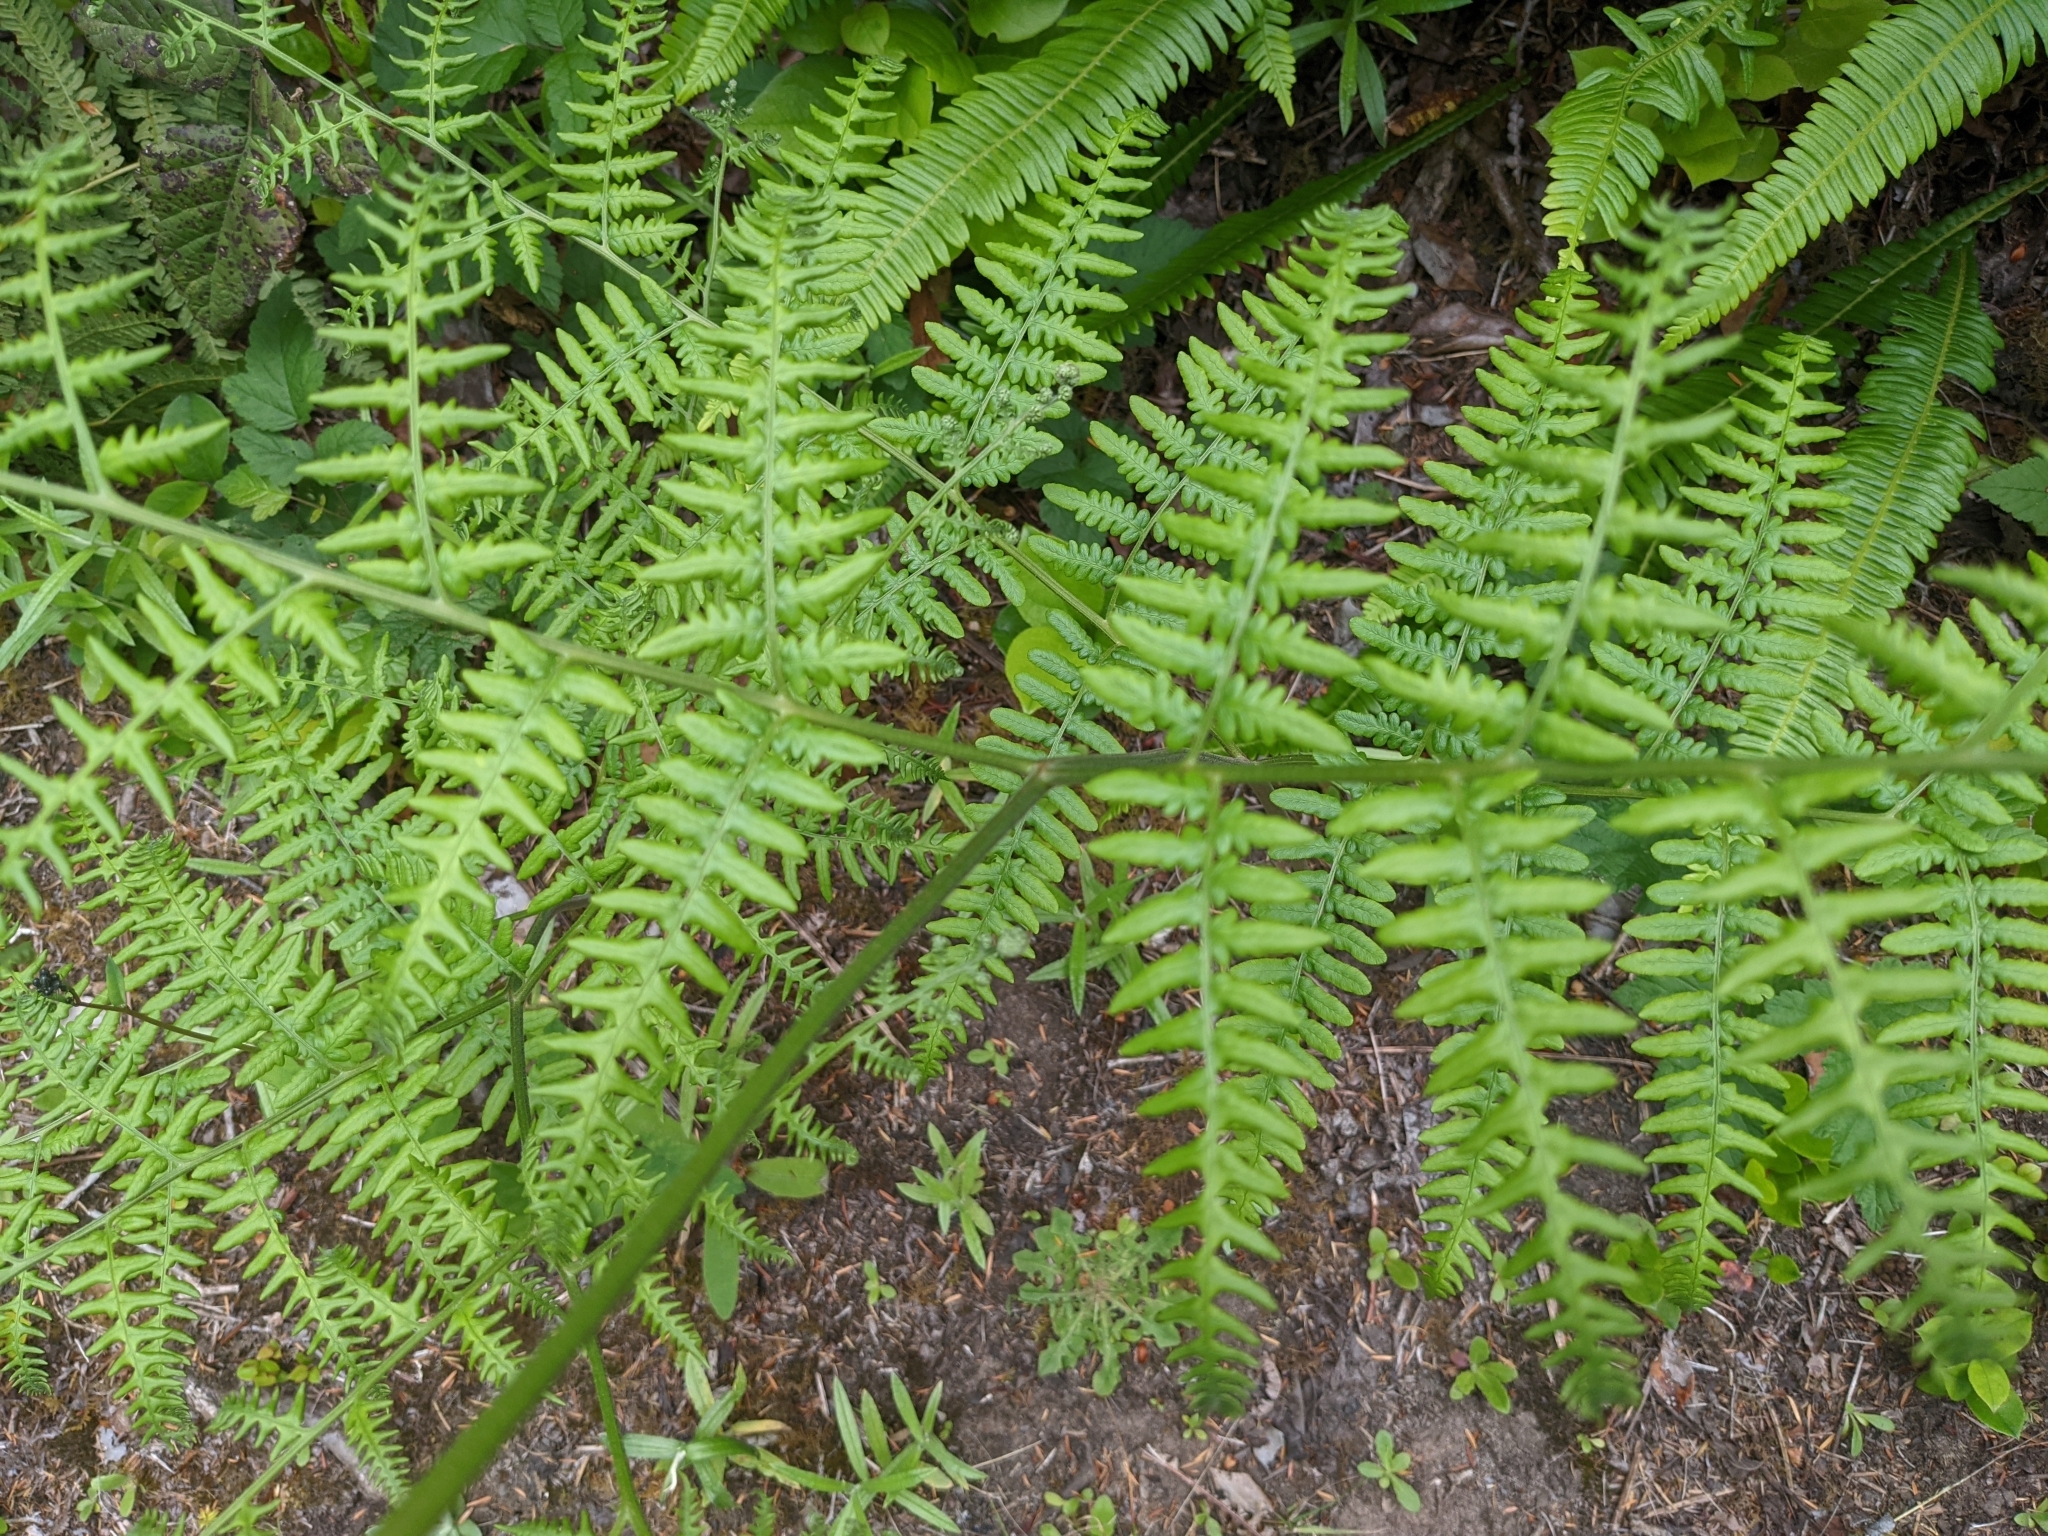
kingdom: Plantae
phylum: Tracheophyta
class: Polypodiopsida
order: Polypodiales
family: Dennstaedtiaceae
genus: Pteridium
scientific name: Pteridium aquilinum
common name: Bracken
